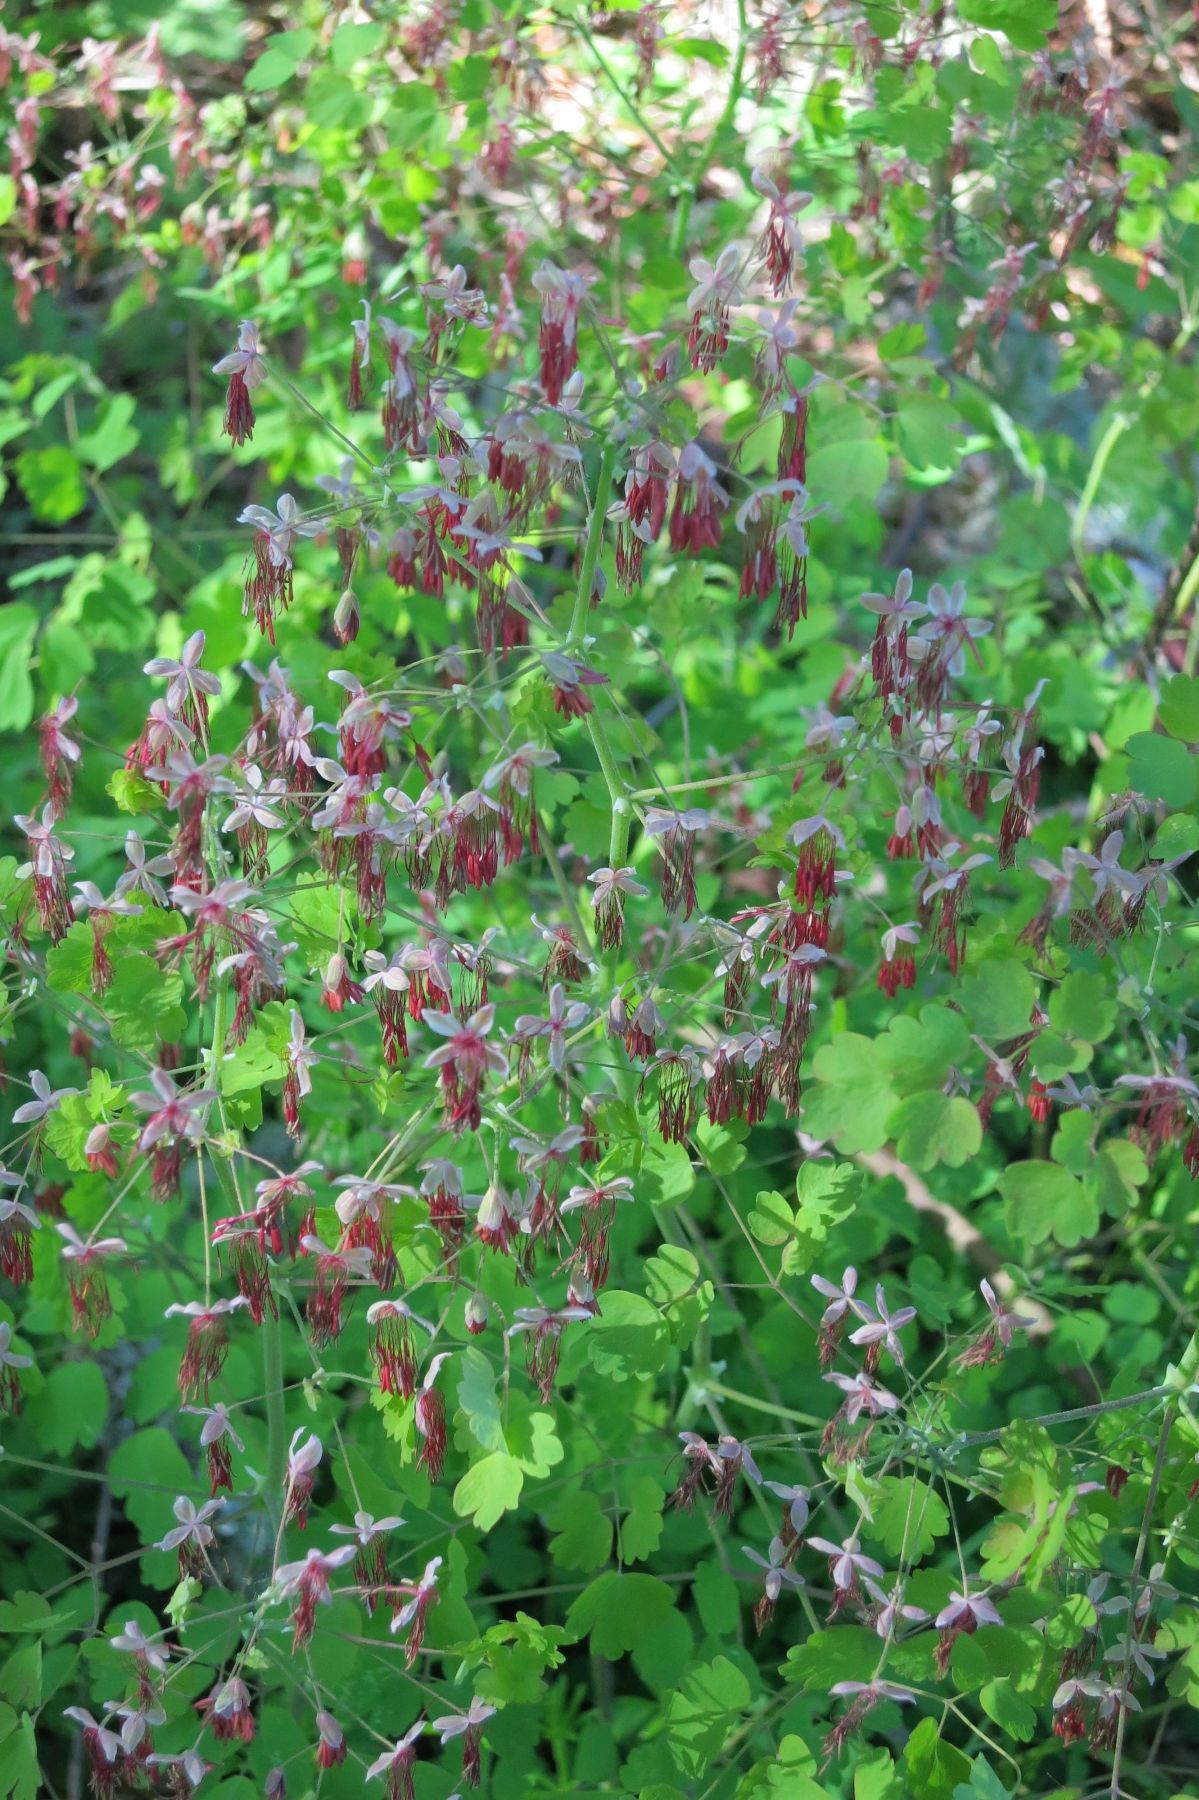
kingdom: Plantae
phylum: Tracheophyta
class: Magnoliopsida
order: Ranunculales
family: Ranunculaceae
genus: Thalictrum
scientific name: Thalictrum occidentale
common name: Western meadow-rue
